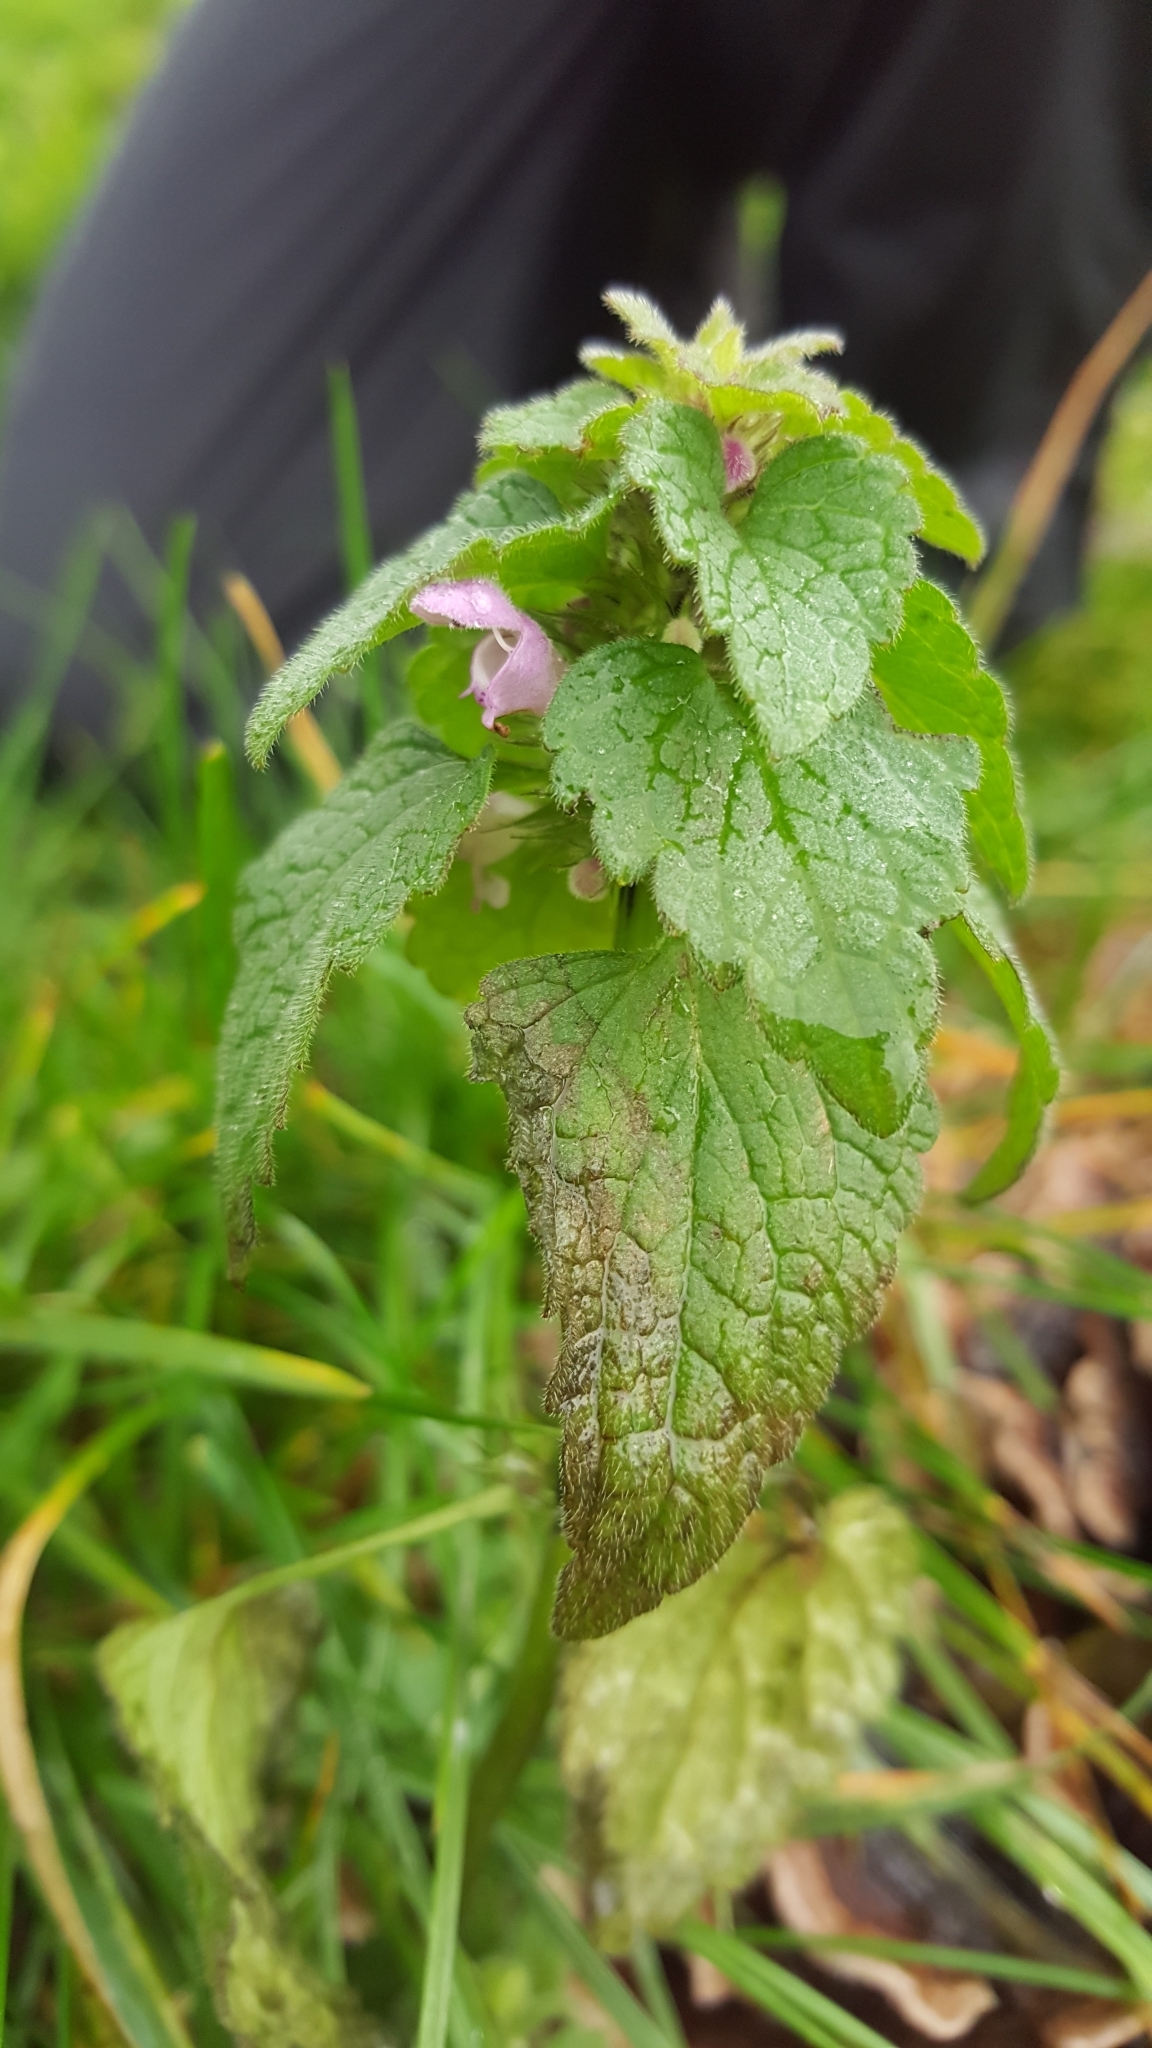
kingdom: Plantae
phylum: Tracheophyta
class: Magnoliopsida
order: Lamiales
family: Lamiaceae
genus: Lamium
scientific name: Lamium purpureum
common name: Red dead-nettle
